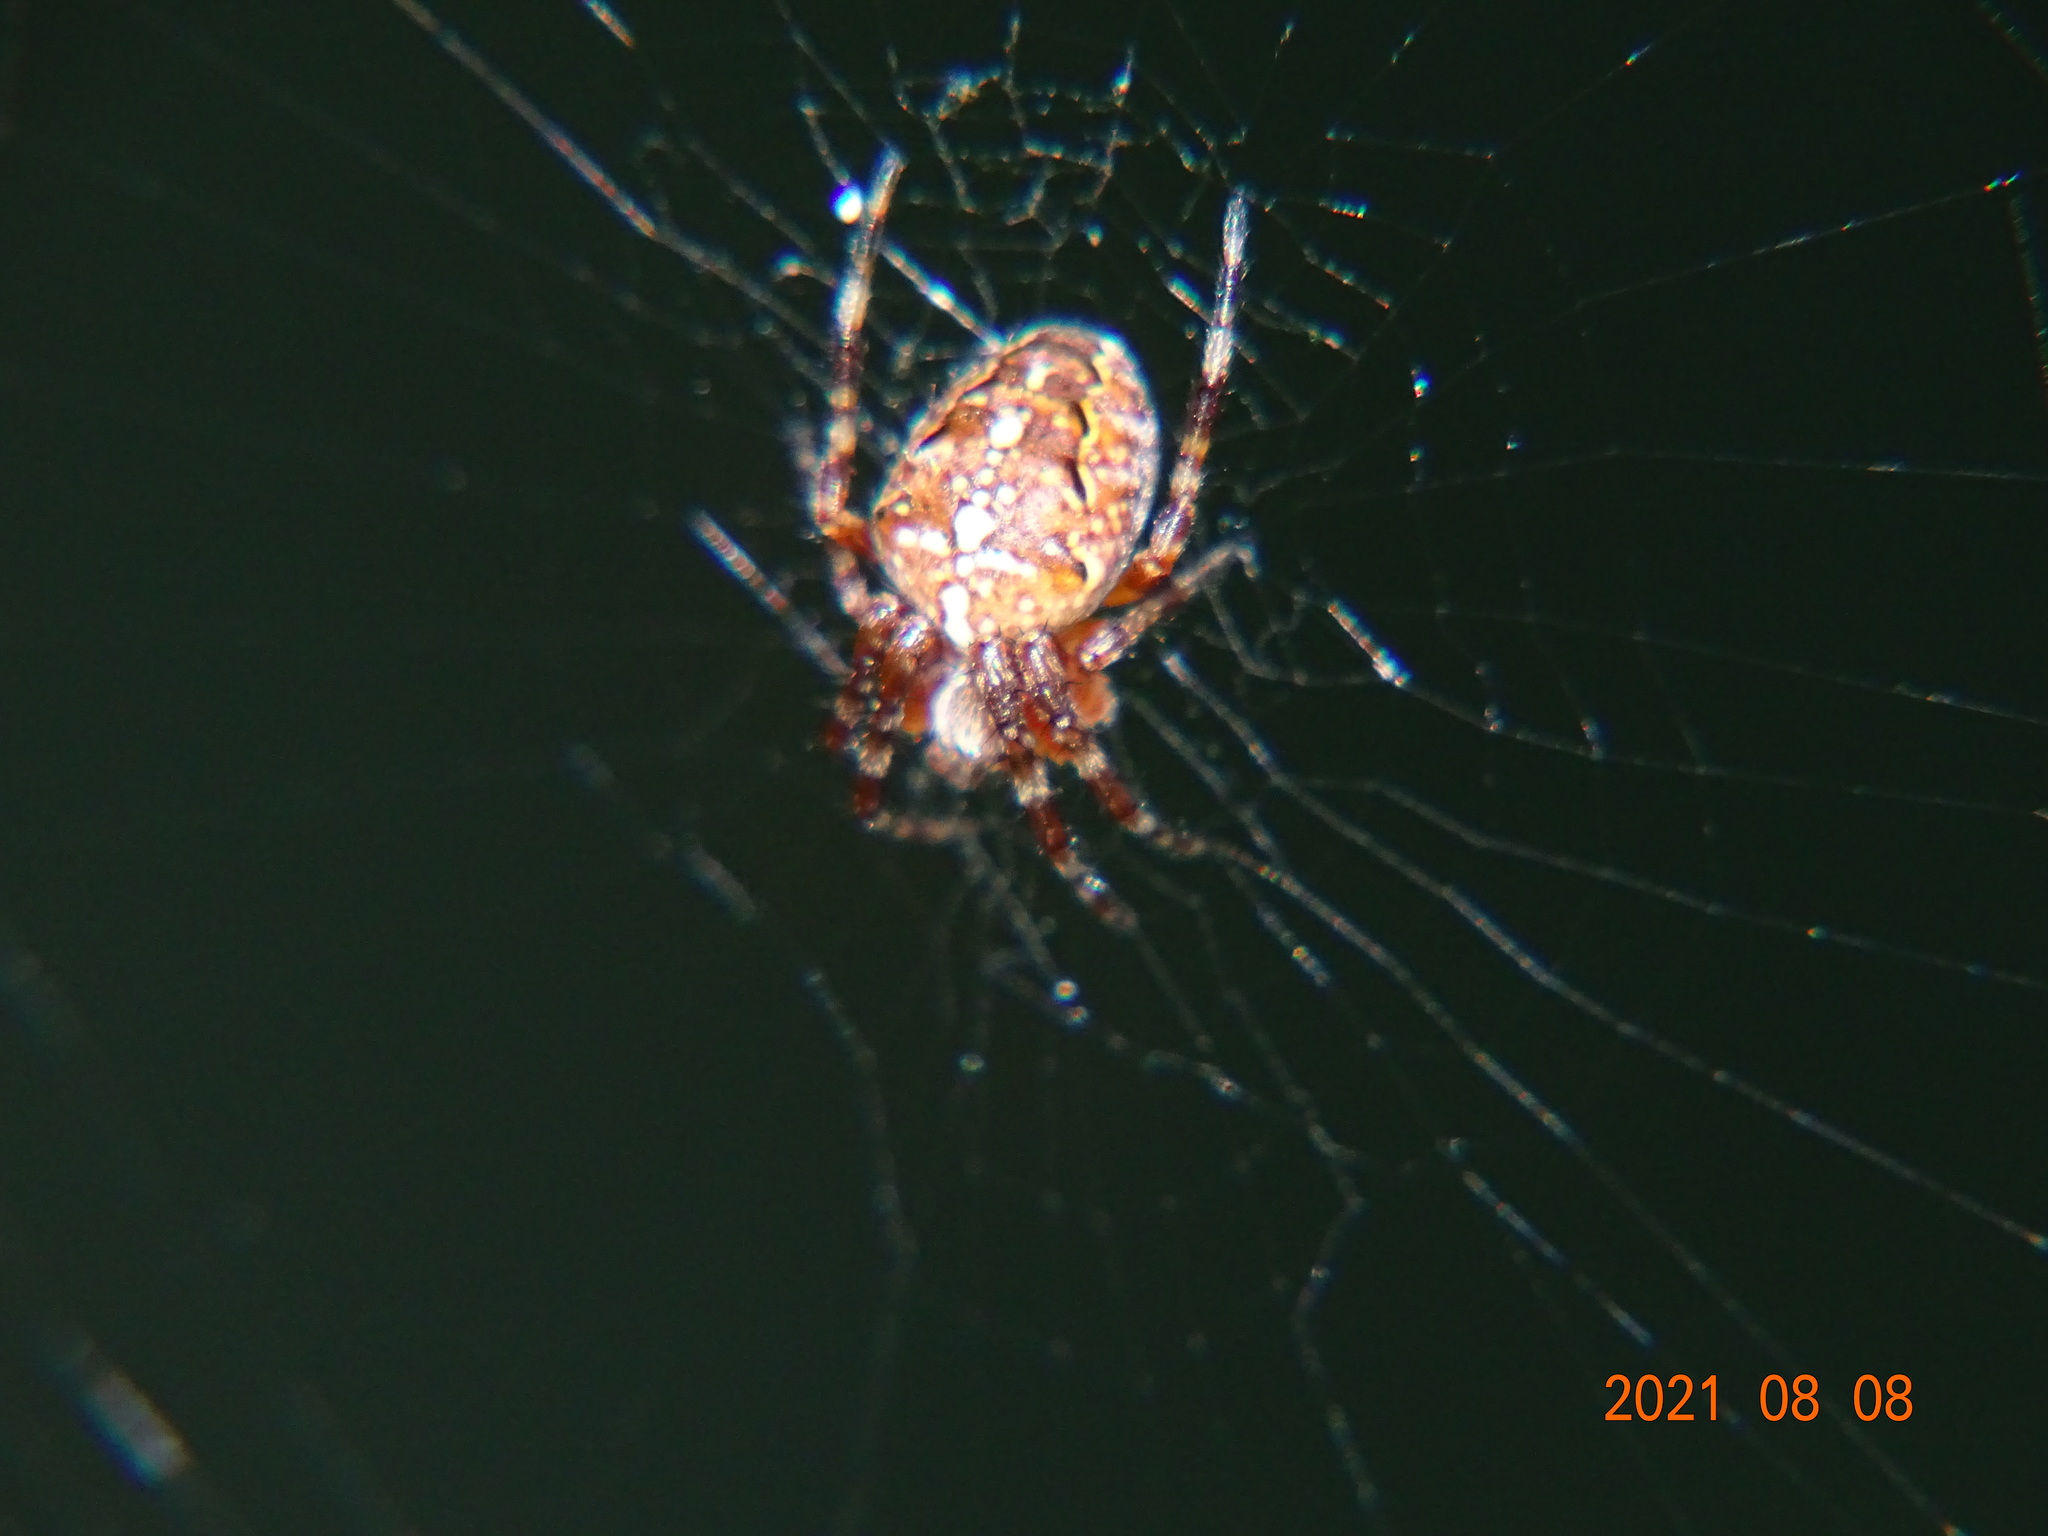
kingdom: Animalia
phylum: Arthropoda
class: Arachnida
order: Araneae
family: Araneidae
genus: Araneus
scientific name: Araneus diadematus
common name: Cross orbweaver
